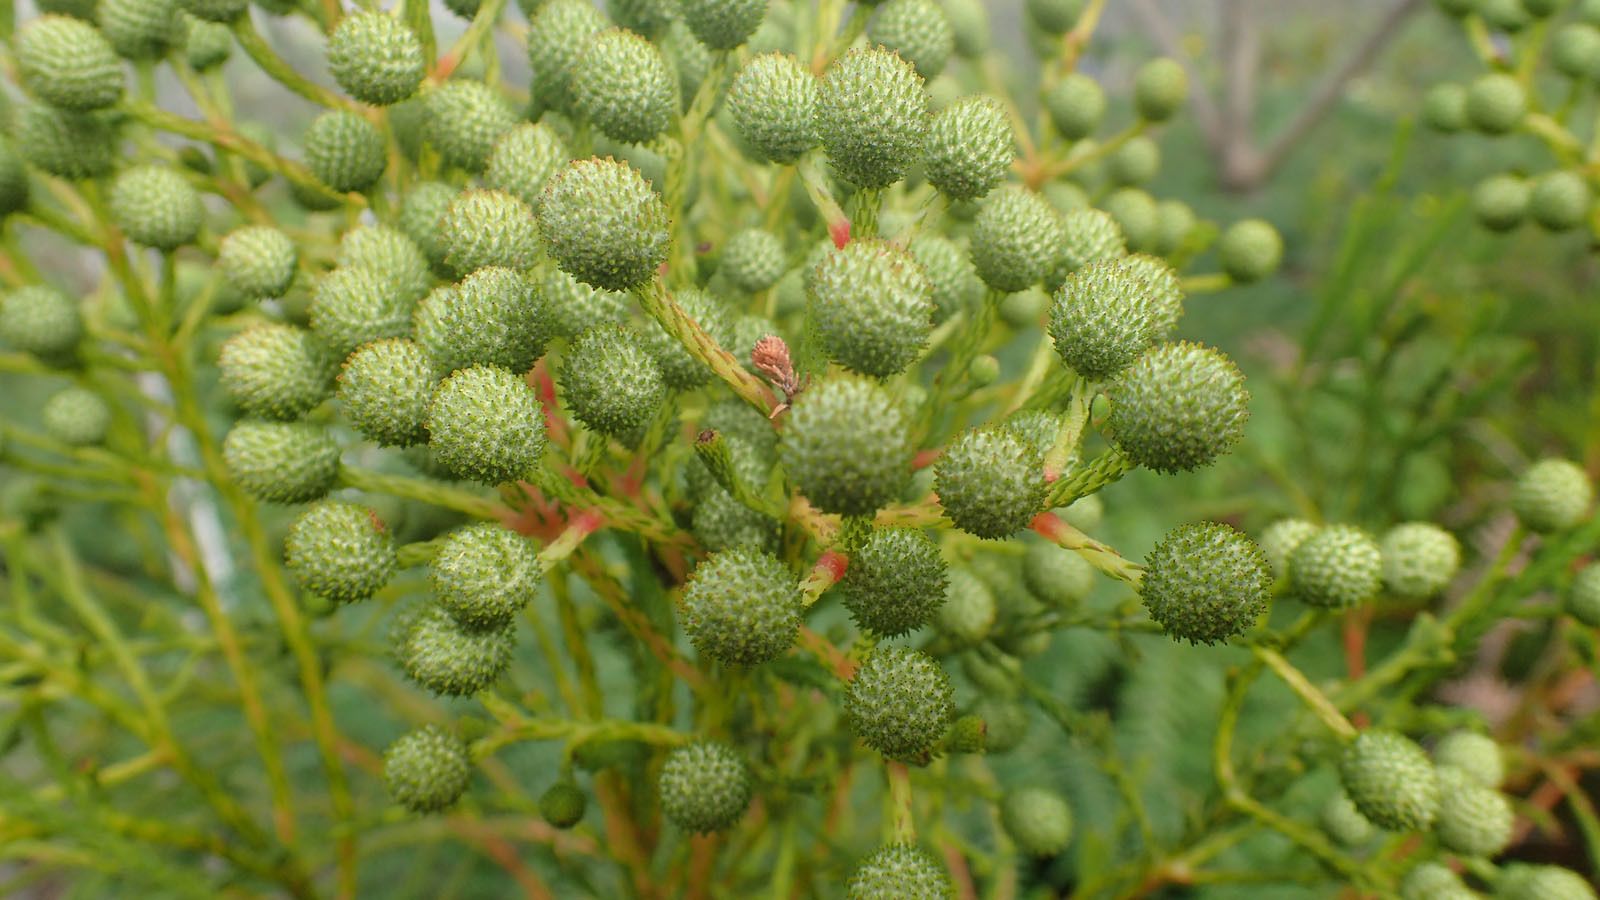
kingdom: Plantae
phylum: Tracheophyta
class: Magnoliopsida
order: Bruniales
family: Bruniaceae
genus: Berzelia
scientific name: Berzelia intermedia
